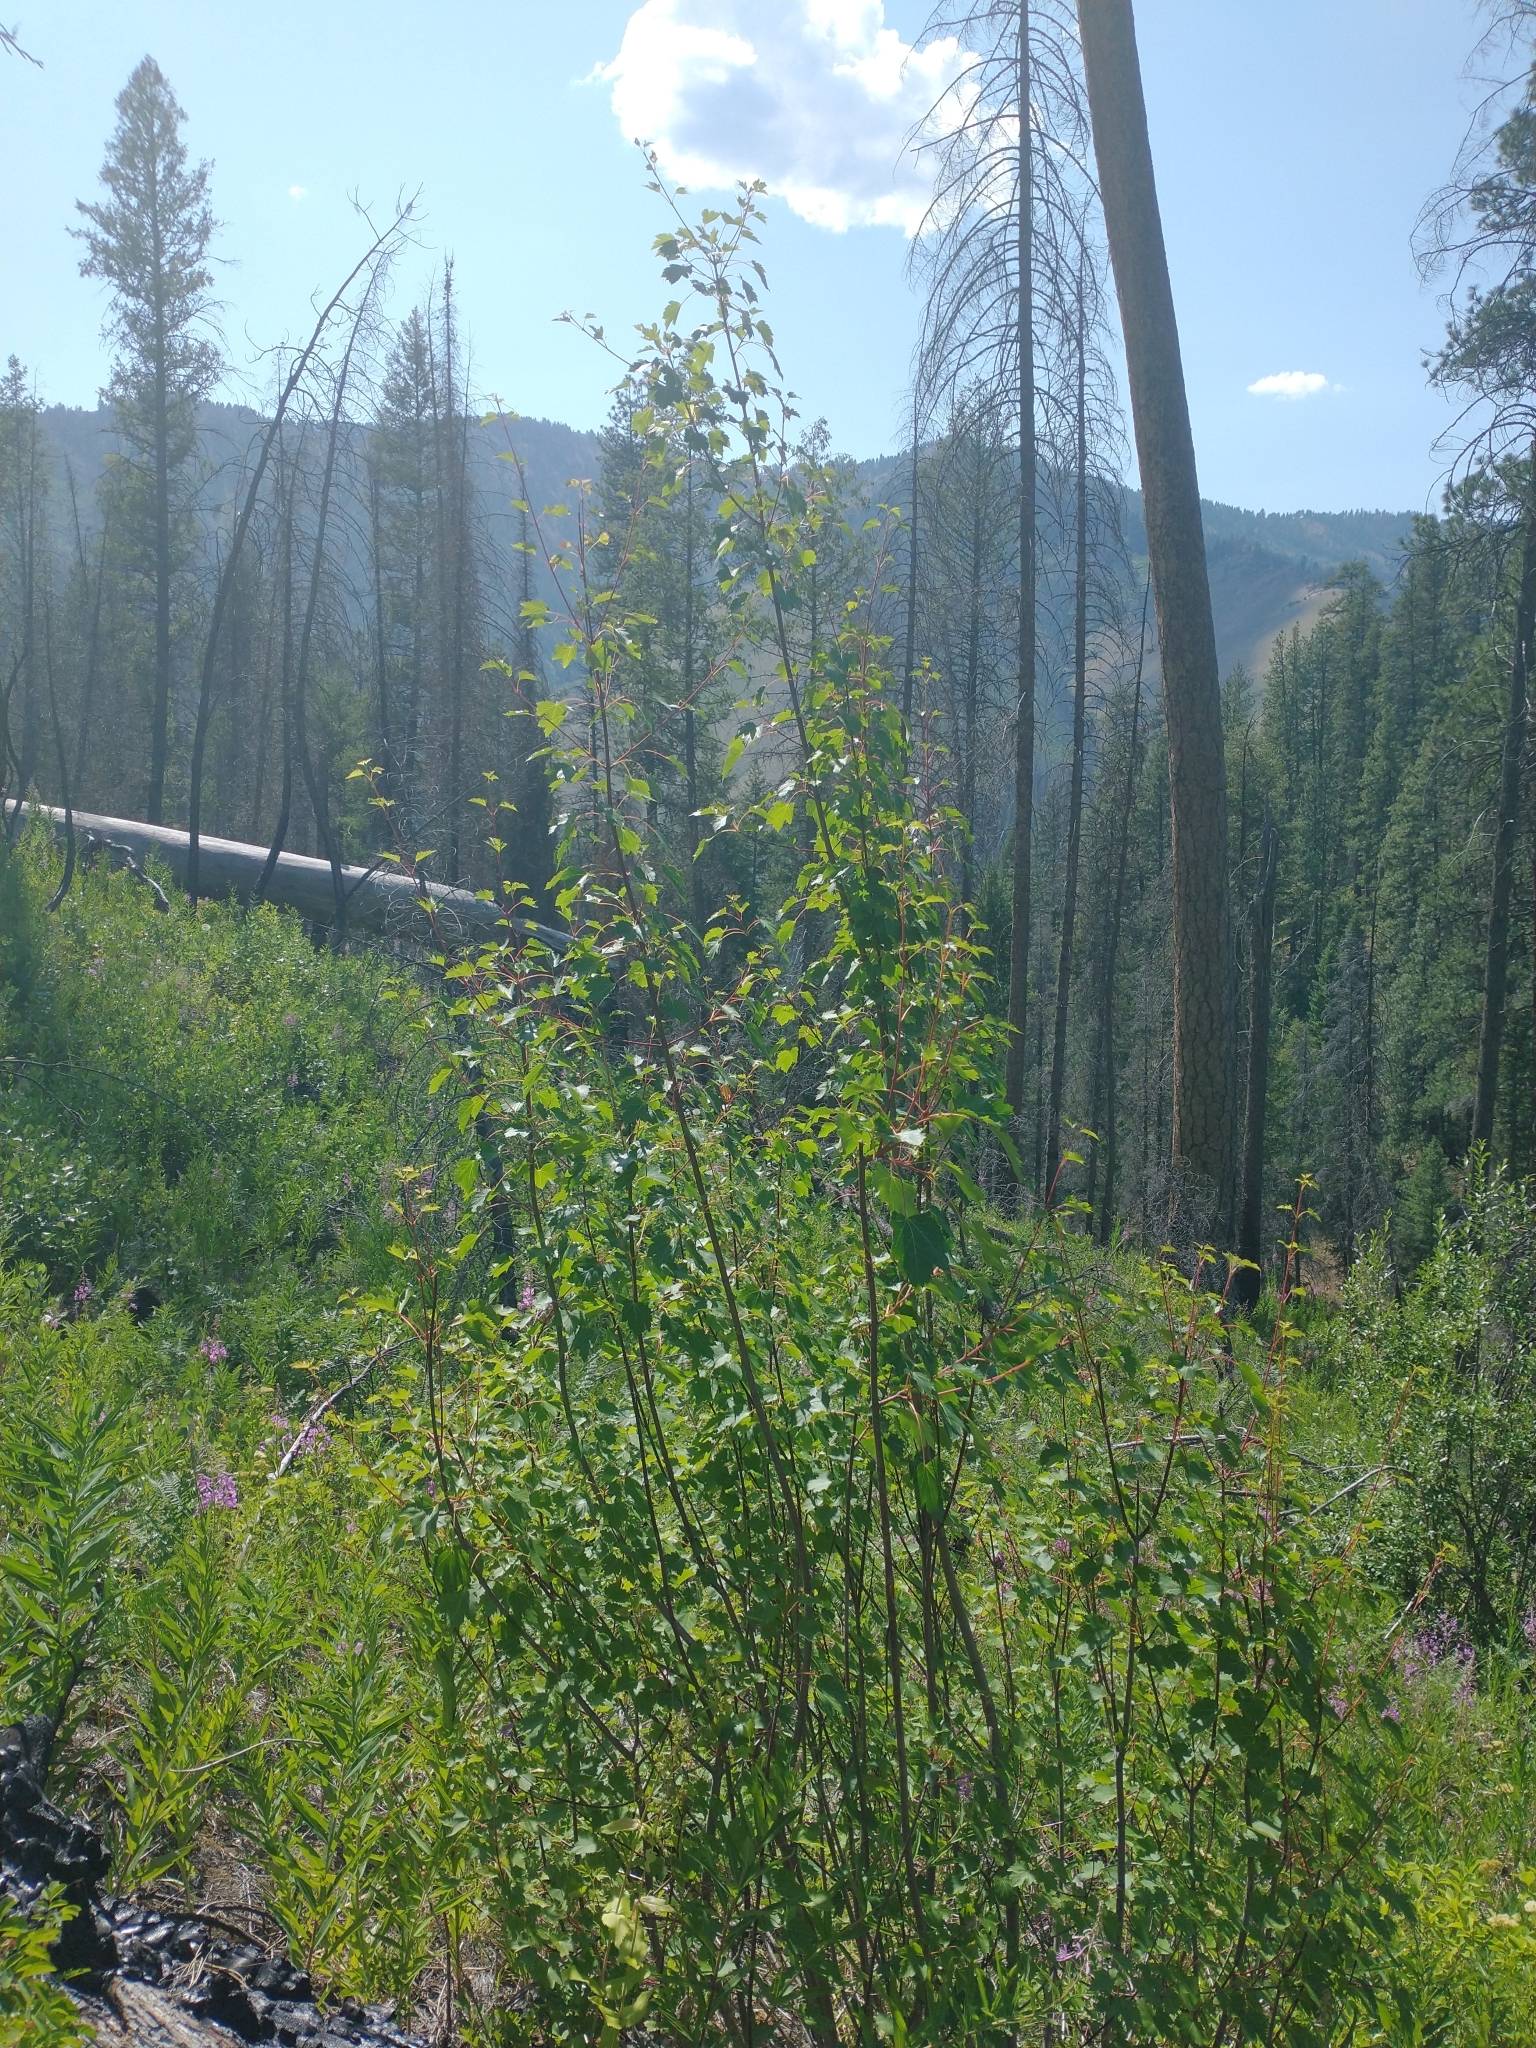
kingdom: Plantae
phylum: Tracheophyta
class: Magnoliopsida
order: Sapindales
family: Sapindaceae
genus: Acer
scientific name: Acer glabrum
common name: Rocky mountain maple
